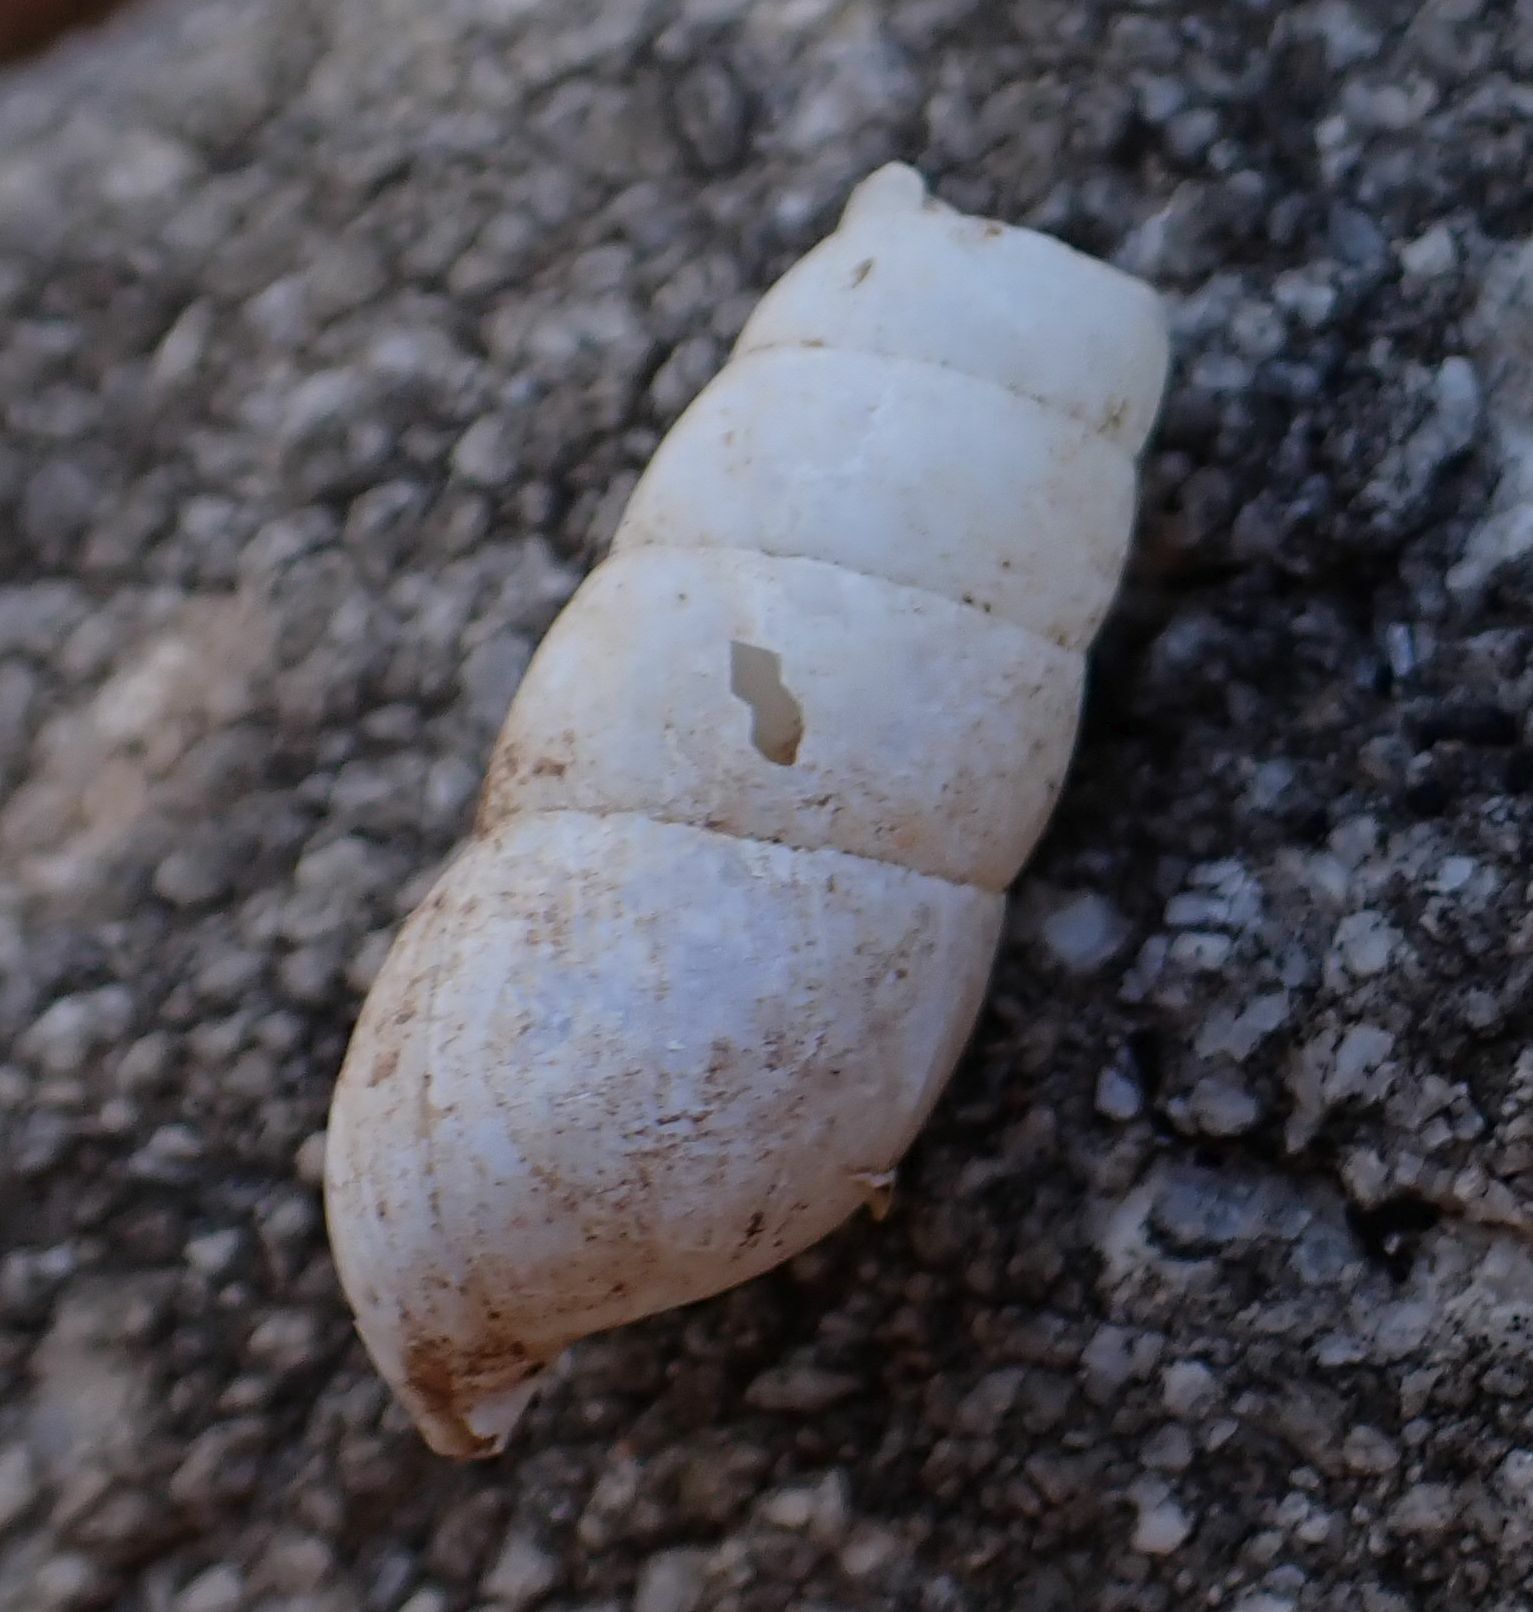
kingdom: Animalia
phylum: Mollusca
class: Gastropoda
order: Stylommatophora
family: Achatinidae
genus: Rumina
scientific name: Rumina decollata
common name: Decollate snail
